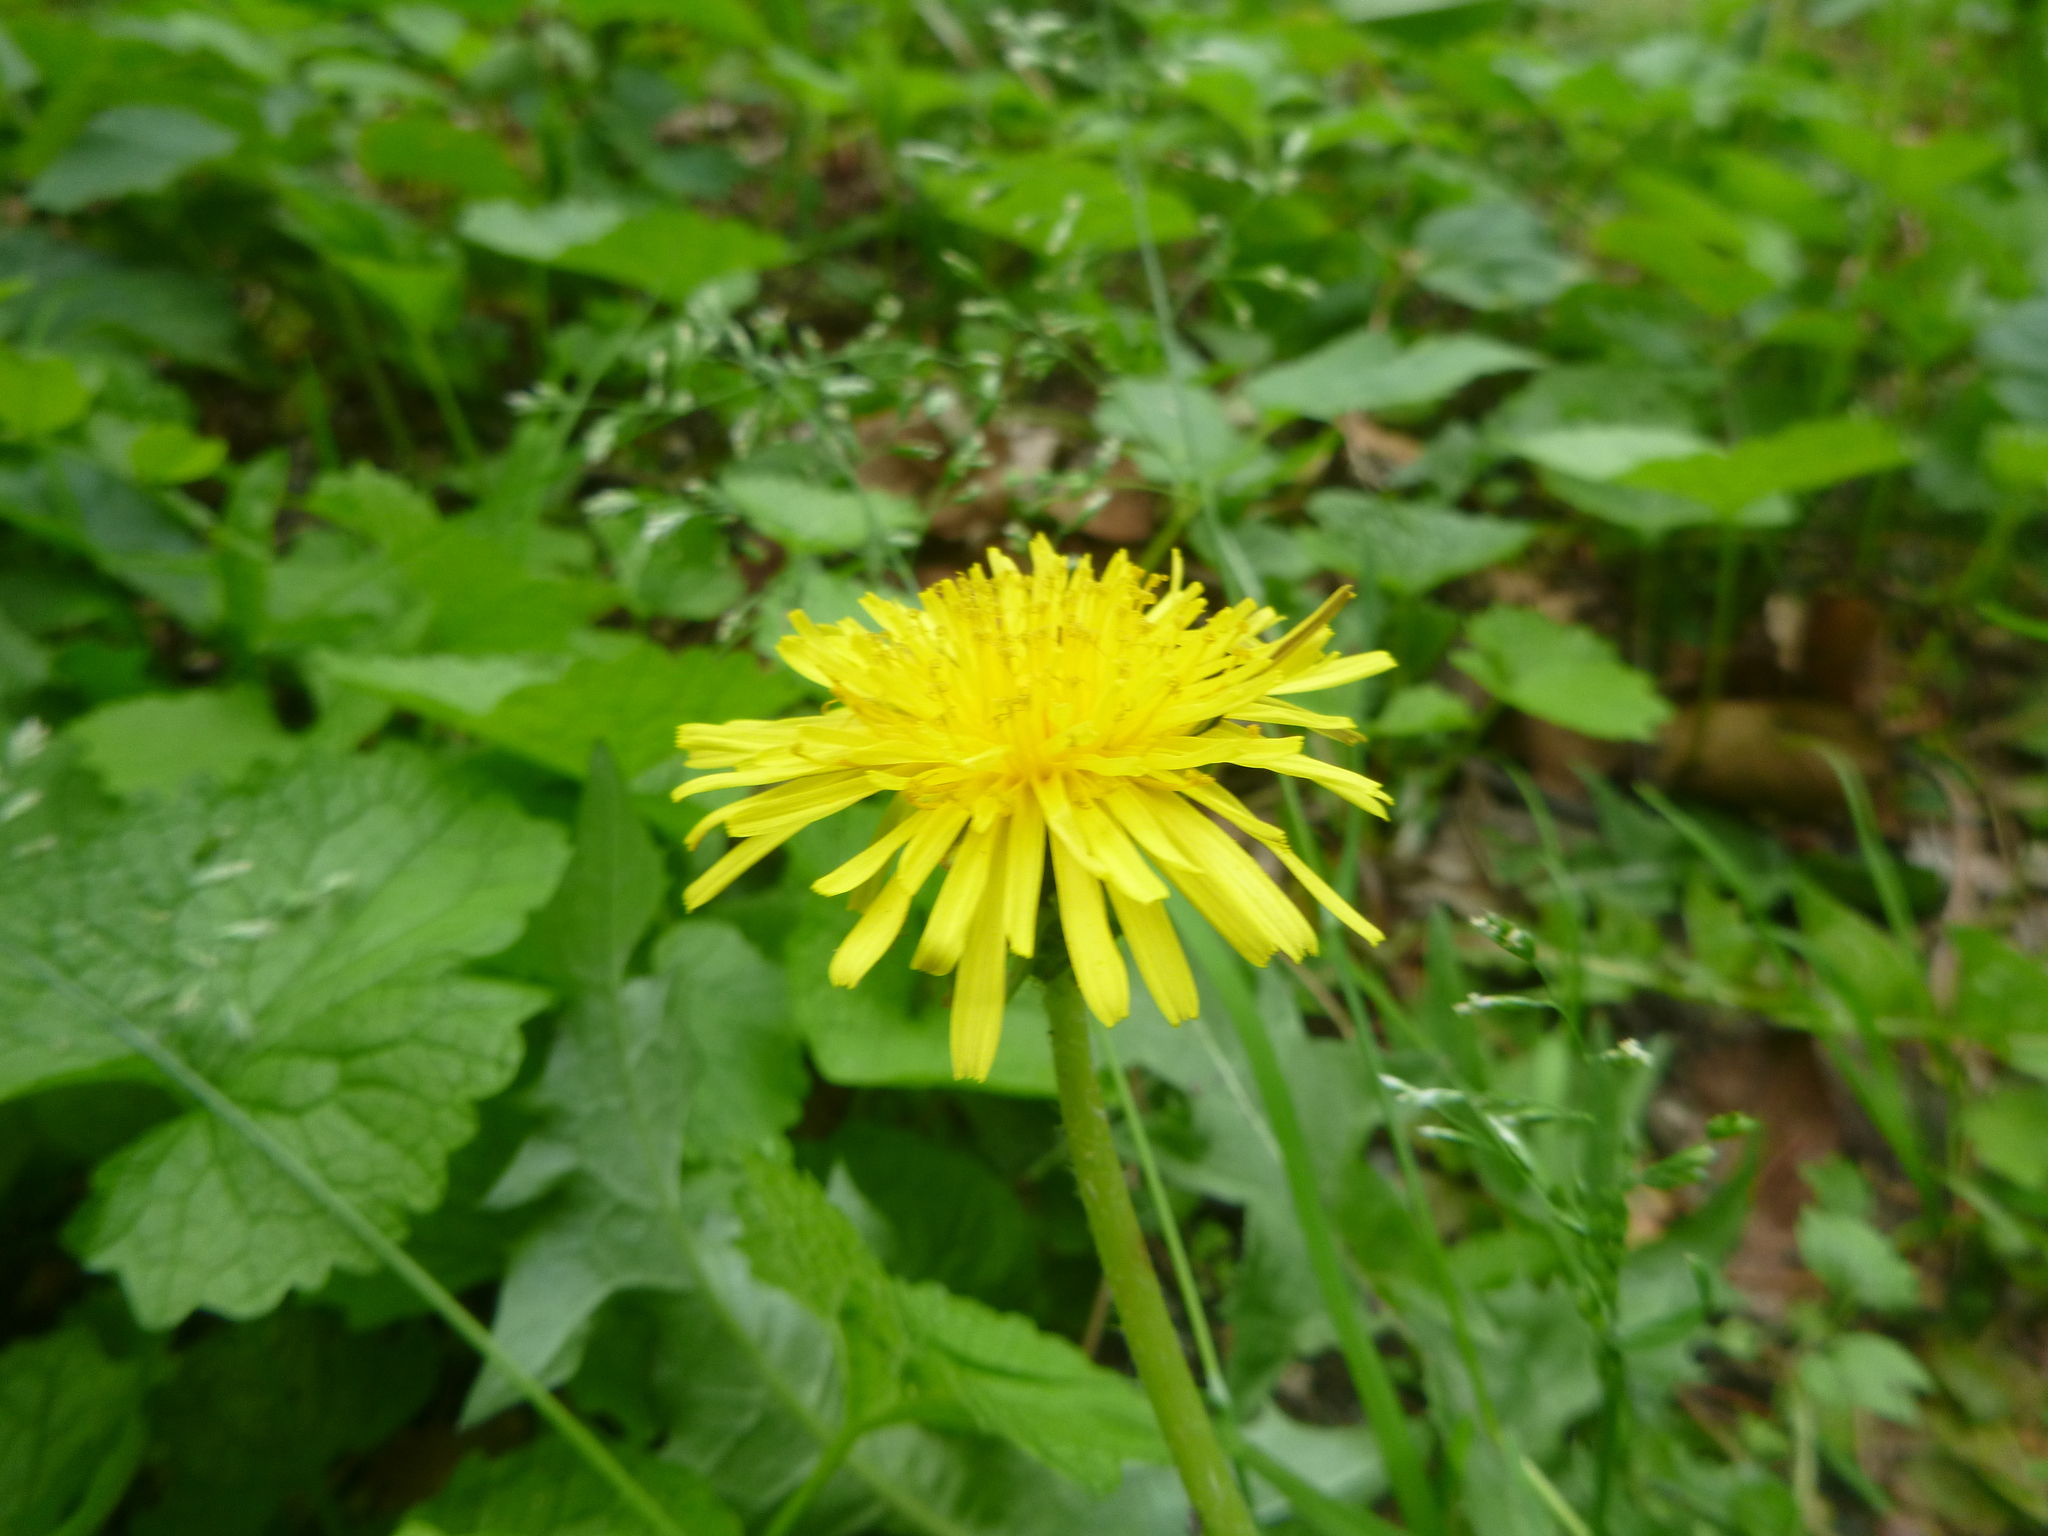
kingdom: Plantae
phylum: Tracheophyta
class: Magnoliopsida
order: Asterales
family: Asteraceae
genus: Taraxacum
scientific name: Taraxacum officinale
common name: Common dandelion
